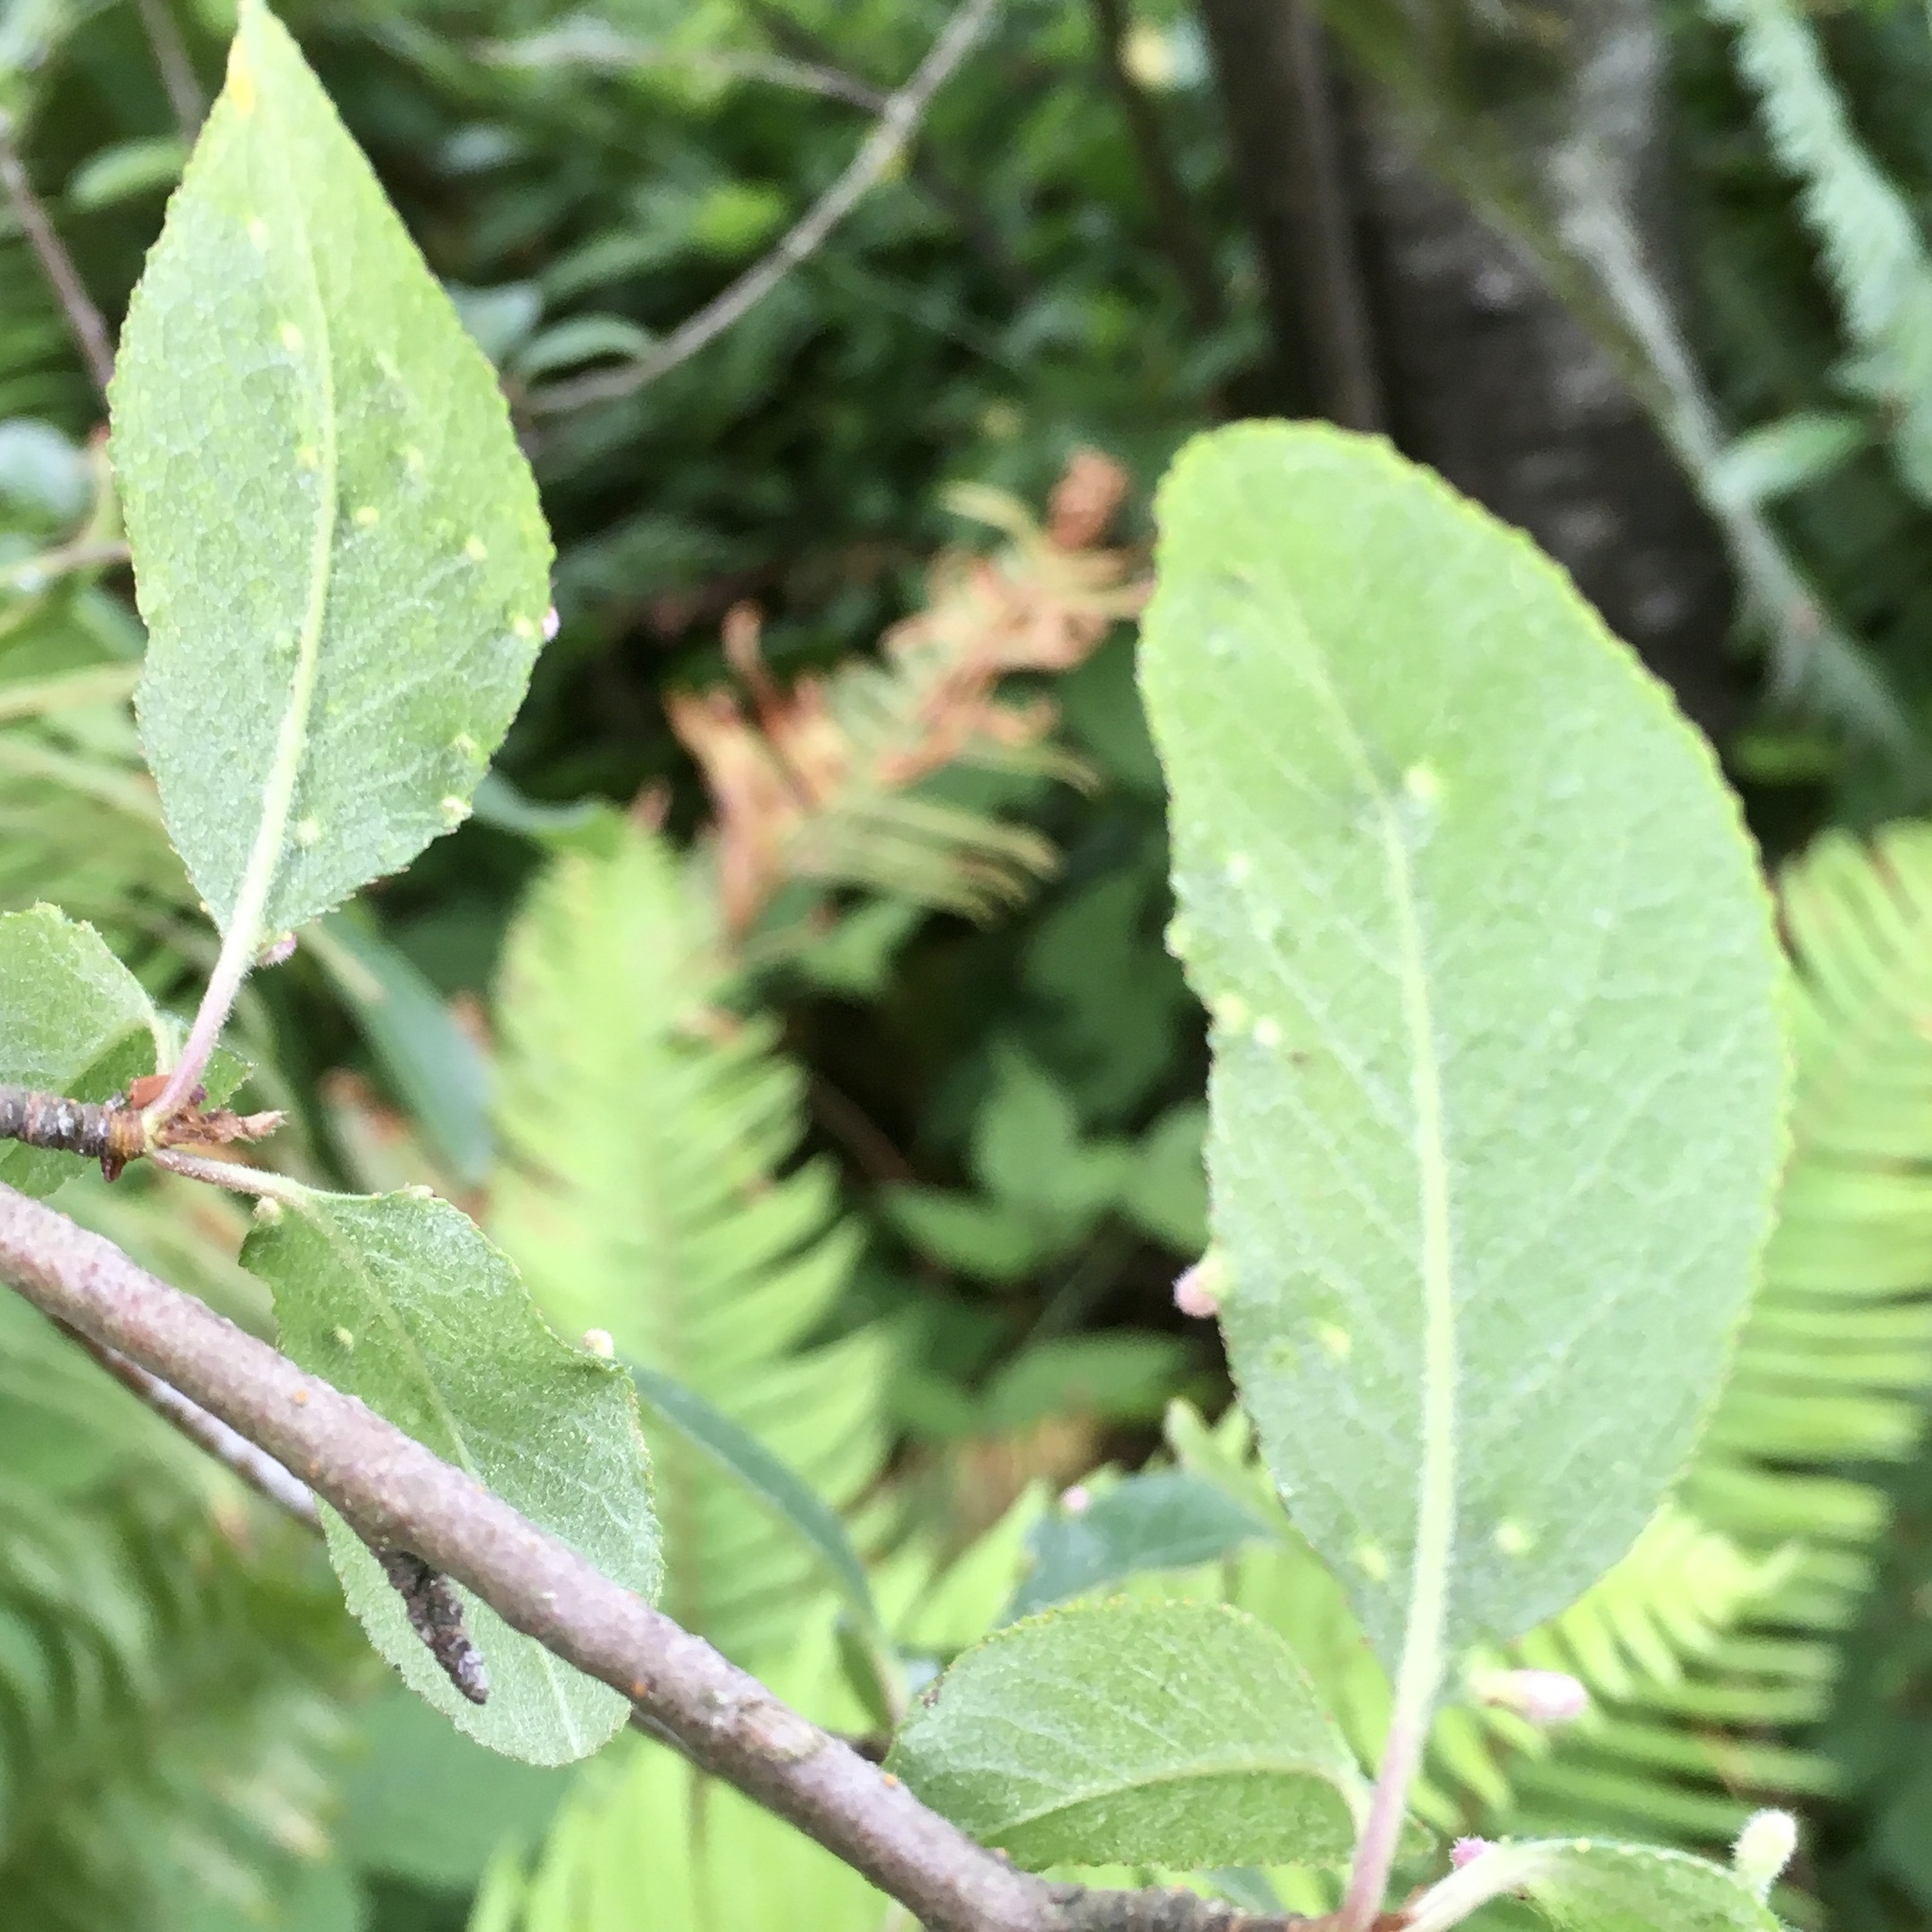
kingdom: Animalia
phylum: Arthropoda
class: Arachnida
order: Trombidiformes
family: Eriophyidae
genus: Eriophyes
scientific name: Eriophyes emarginatae
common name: Plum leaf gall mite
